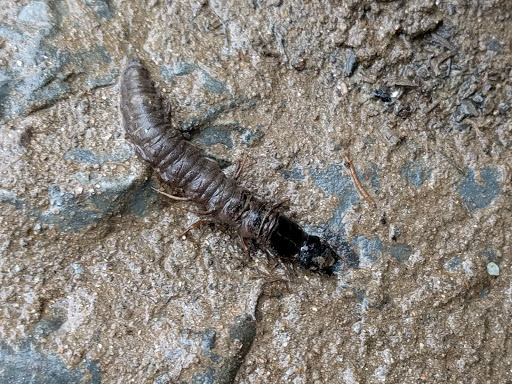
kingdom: Animalia
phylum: Arthropoda
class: Insecta
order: Megaloptera
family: Corydalidae
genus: Nigronia
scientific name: Nigronia
